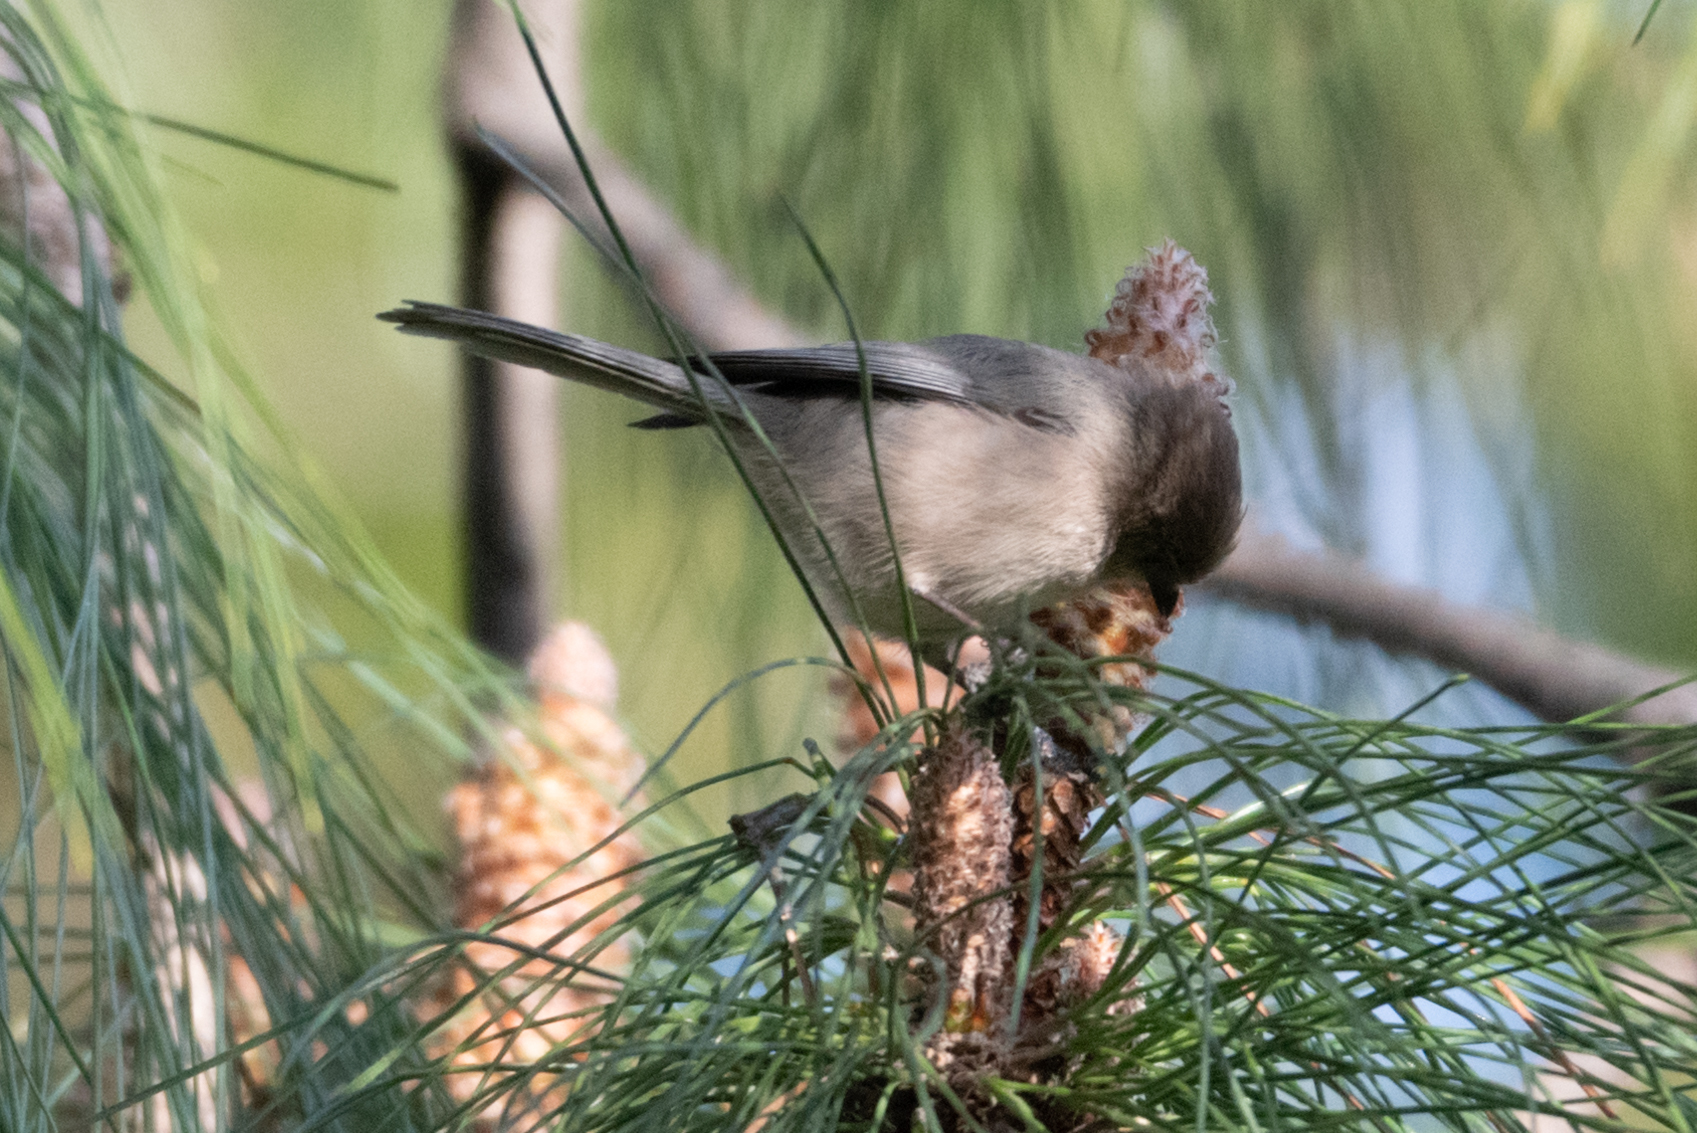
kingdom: Animalia
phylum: Chordata
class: Aves
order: Passeriformes
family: Aegithalidae
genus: Psaltriparus
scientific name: Psaltriparus minimus
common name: American bushtit
